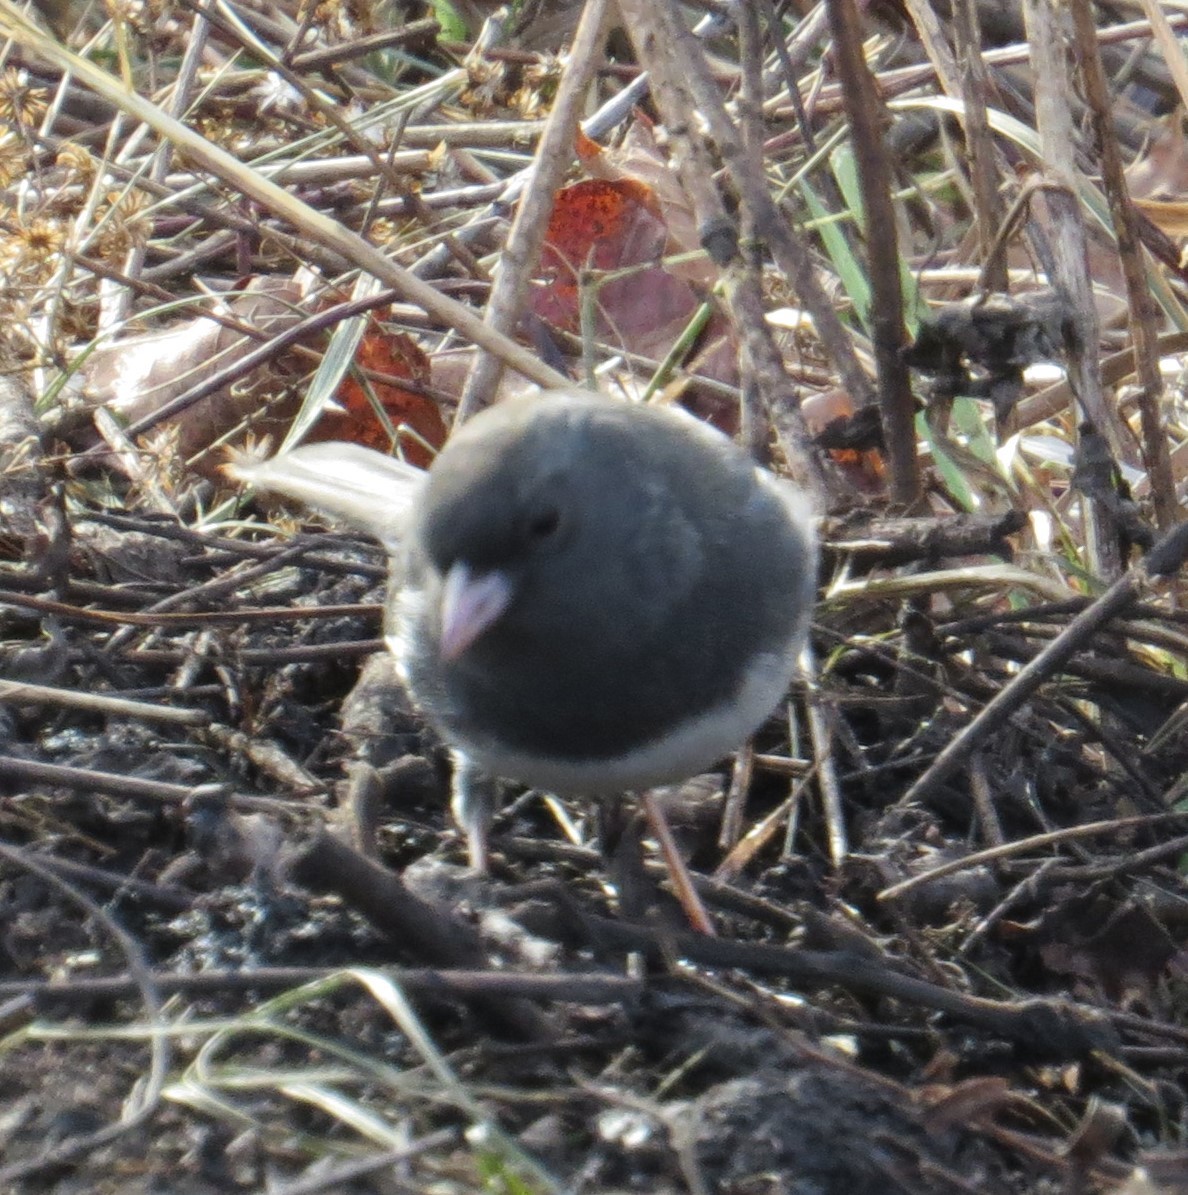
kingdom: Animalia
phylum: Chordata
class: Aves
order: Passeriformes
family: Passerellidae
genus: Junco
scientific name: Junco hyemalis
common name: Dark-eyed junco
